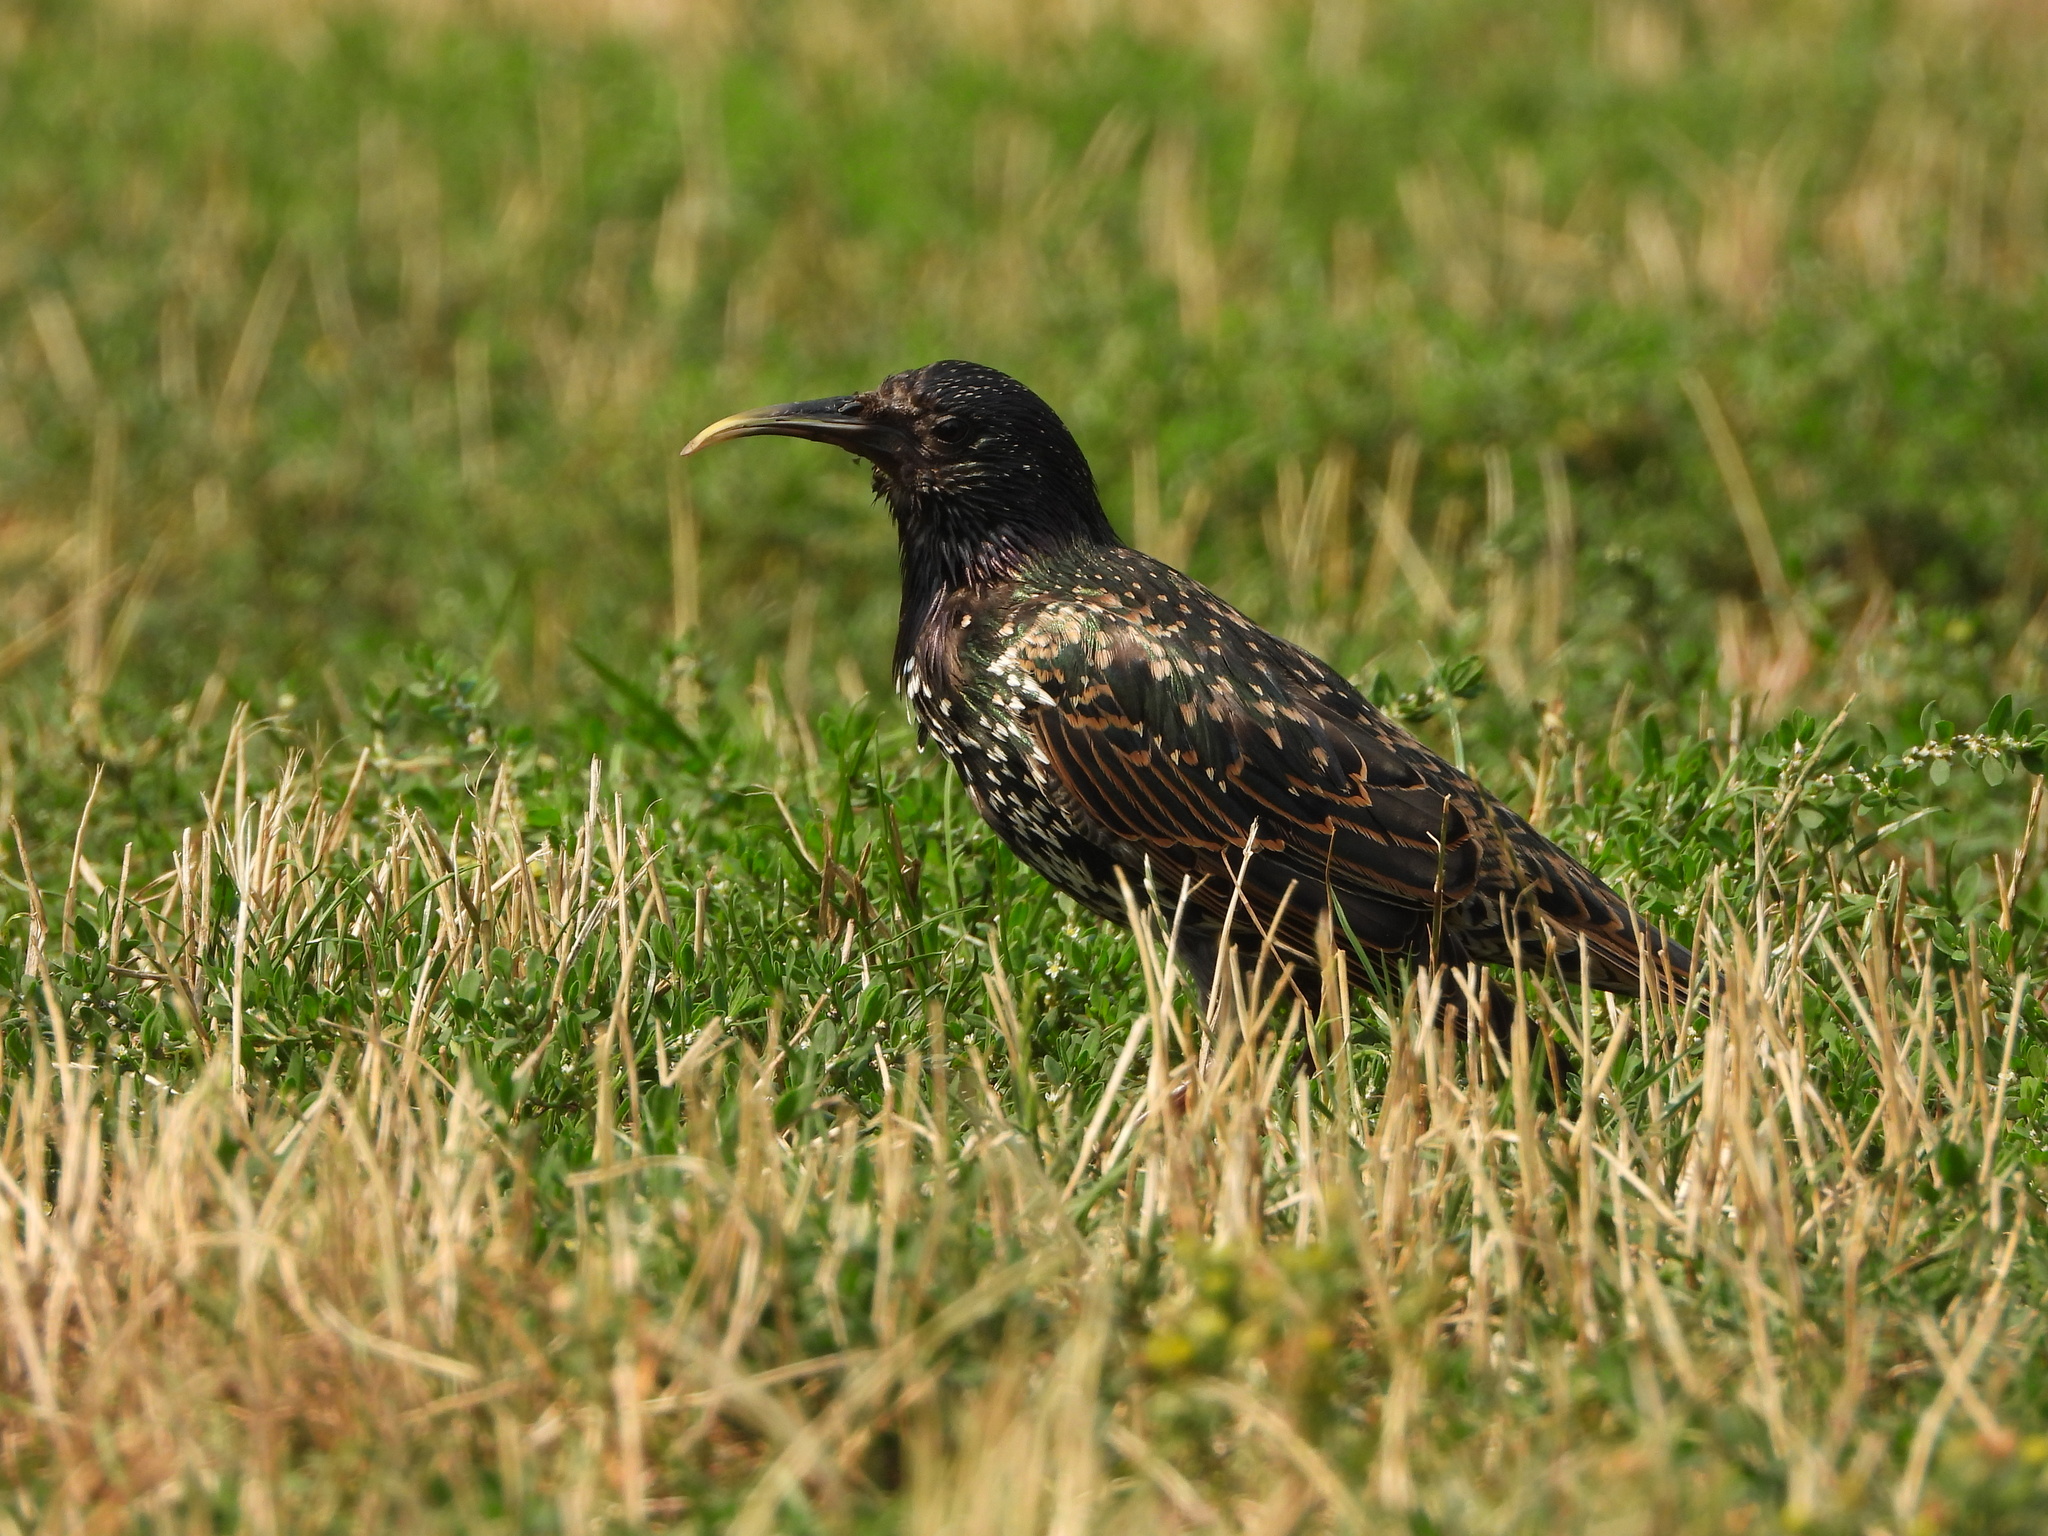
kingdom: Animalia
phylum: Chordata
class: Aves
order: Passeriformes
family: Sturnidae
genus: Sturnus
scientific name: Sturnus vulgaris
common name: Common starling
